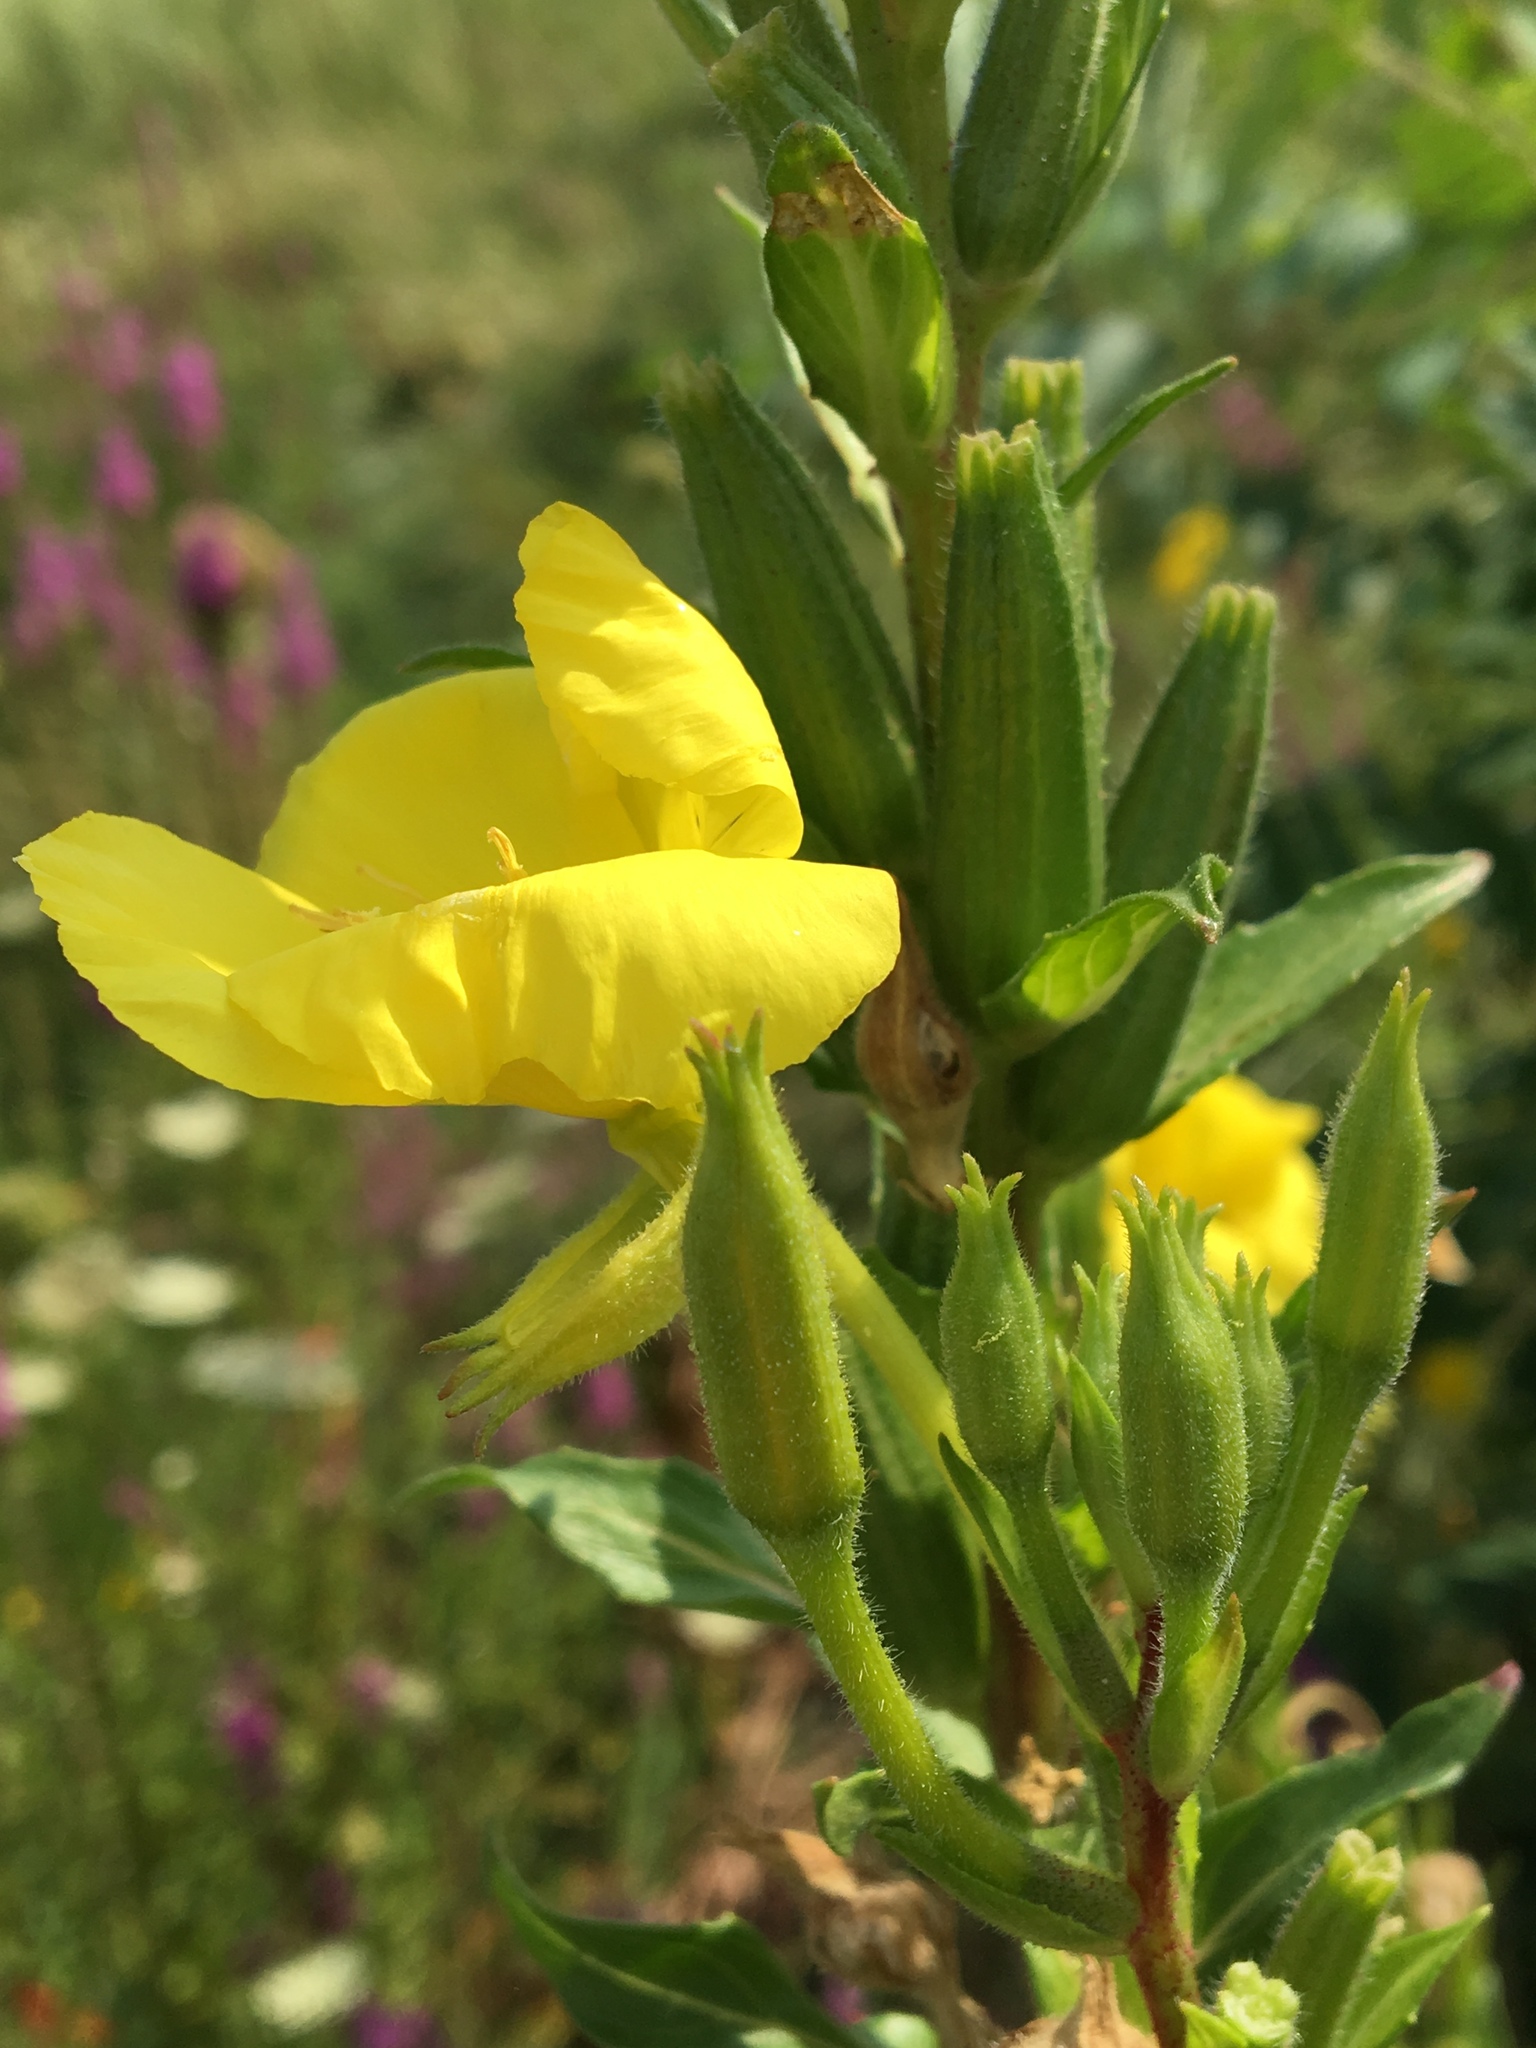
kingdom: Plantae
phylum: Tracheophyta
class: Magnoliopsida
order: Myrtales
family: Onagraceae
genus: Oenothera
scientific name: Oenothera biennis
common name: Common evening-primrose
